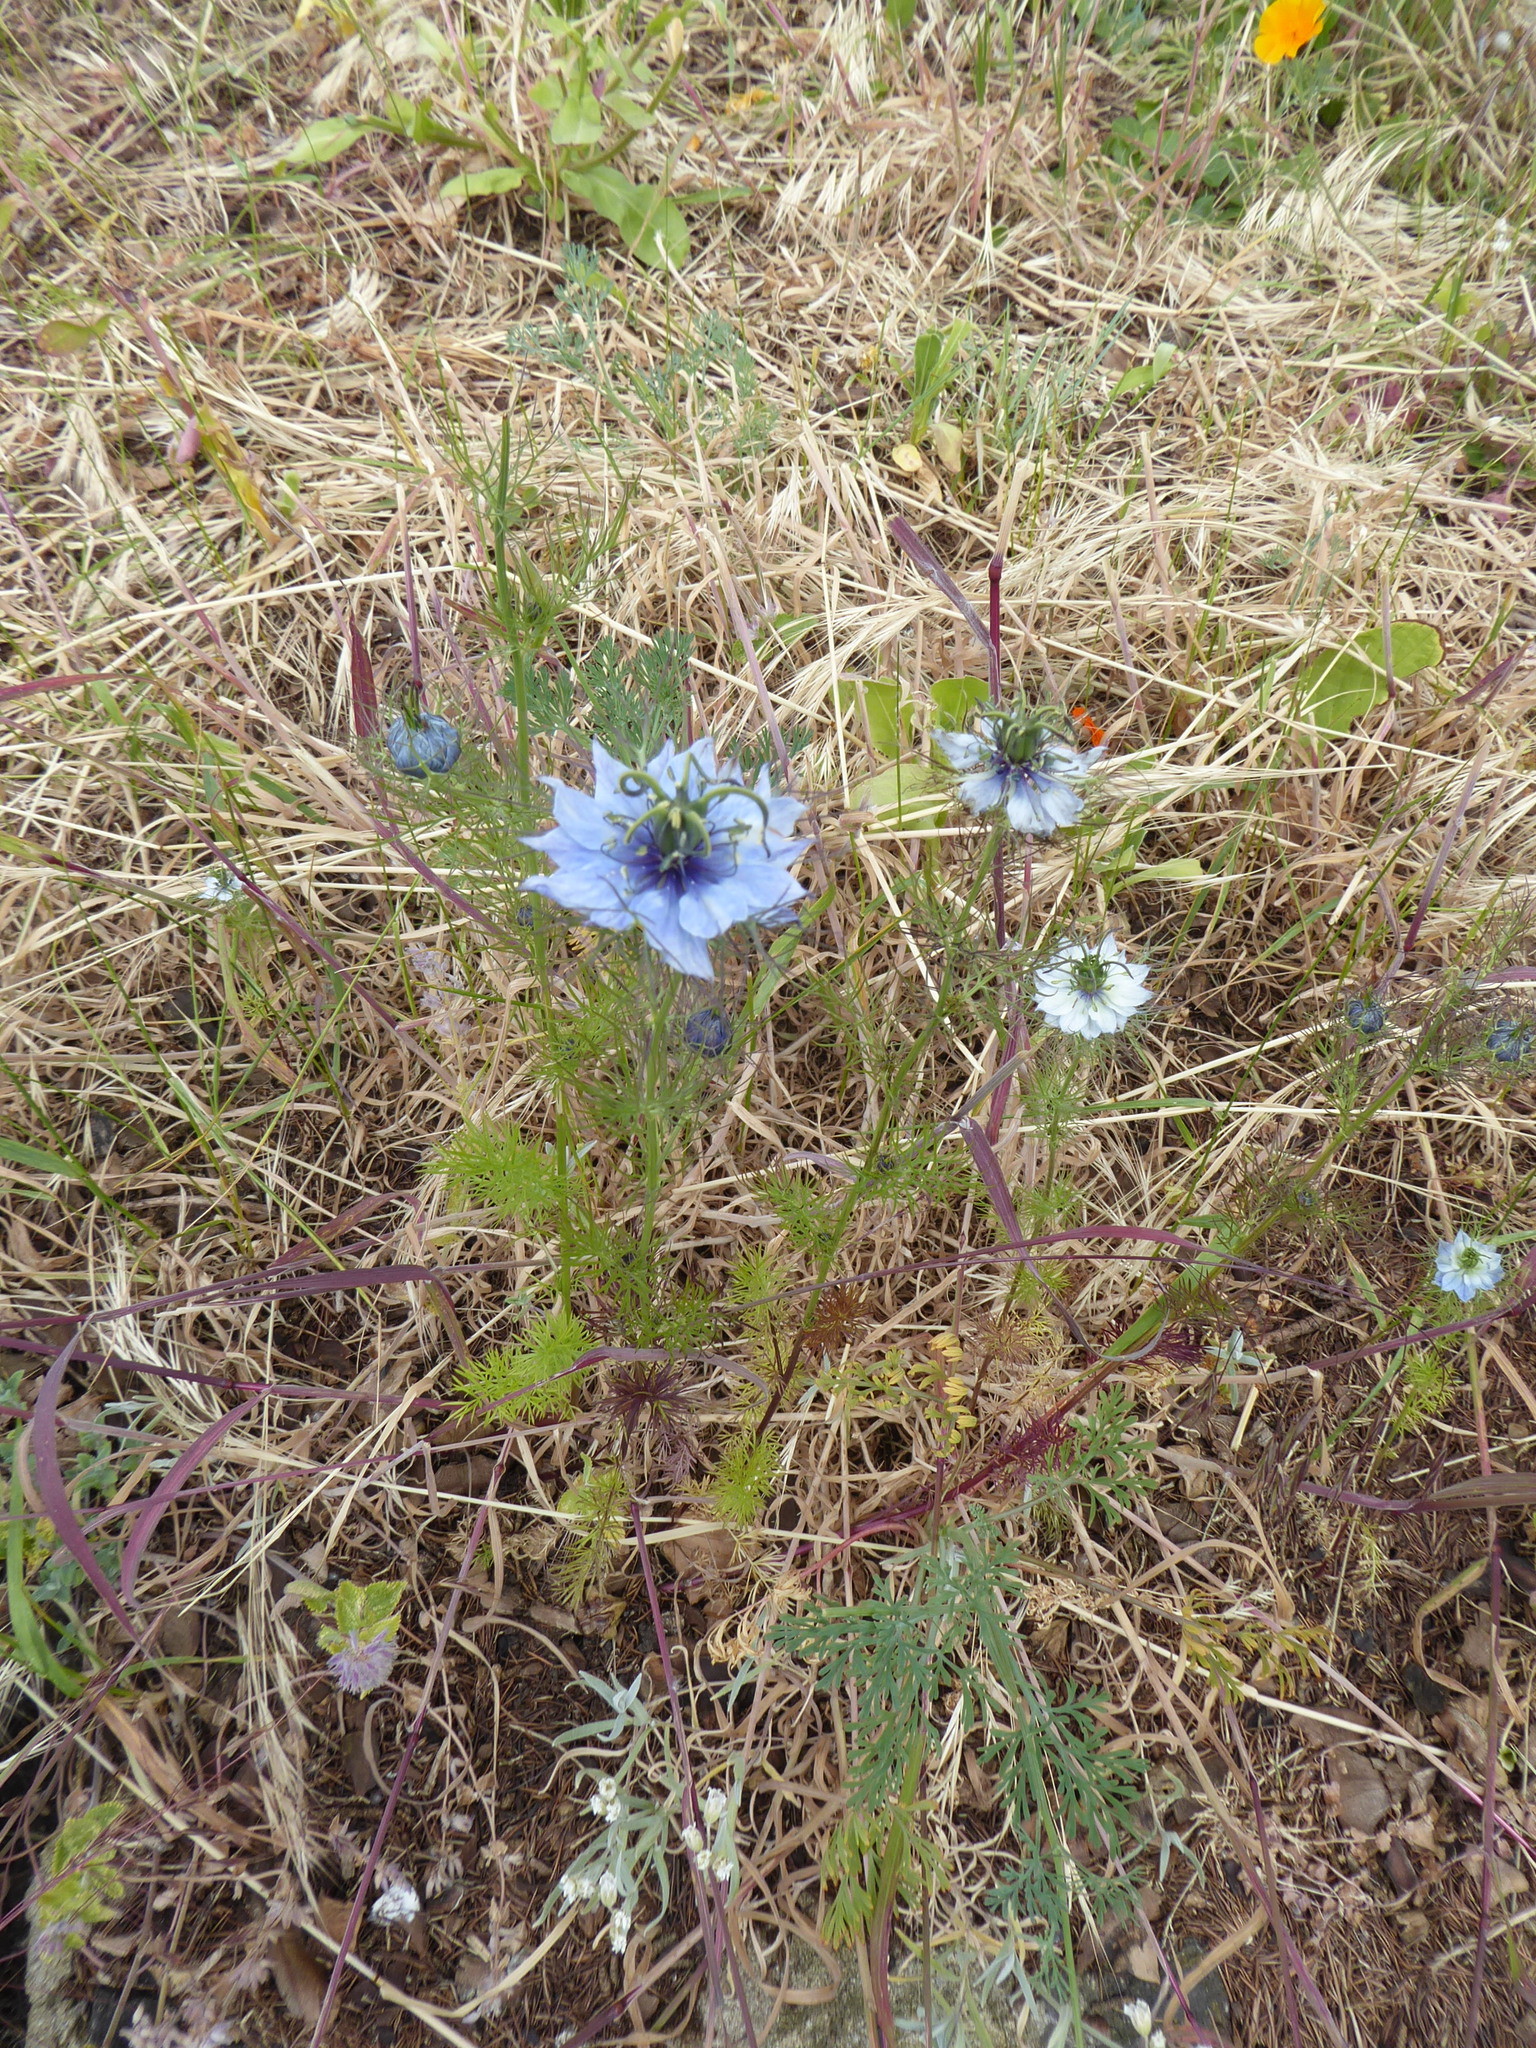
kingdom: Plantae
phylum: Tracheophyta
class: Magnoliopsida
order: Ranunculales
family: Ranunculaceae
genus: Nigella
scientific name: Nigella damascena
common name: Love-in-a-mist
